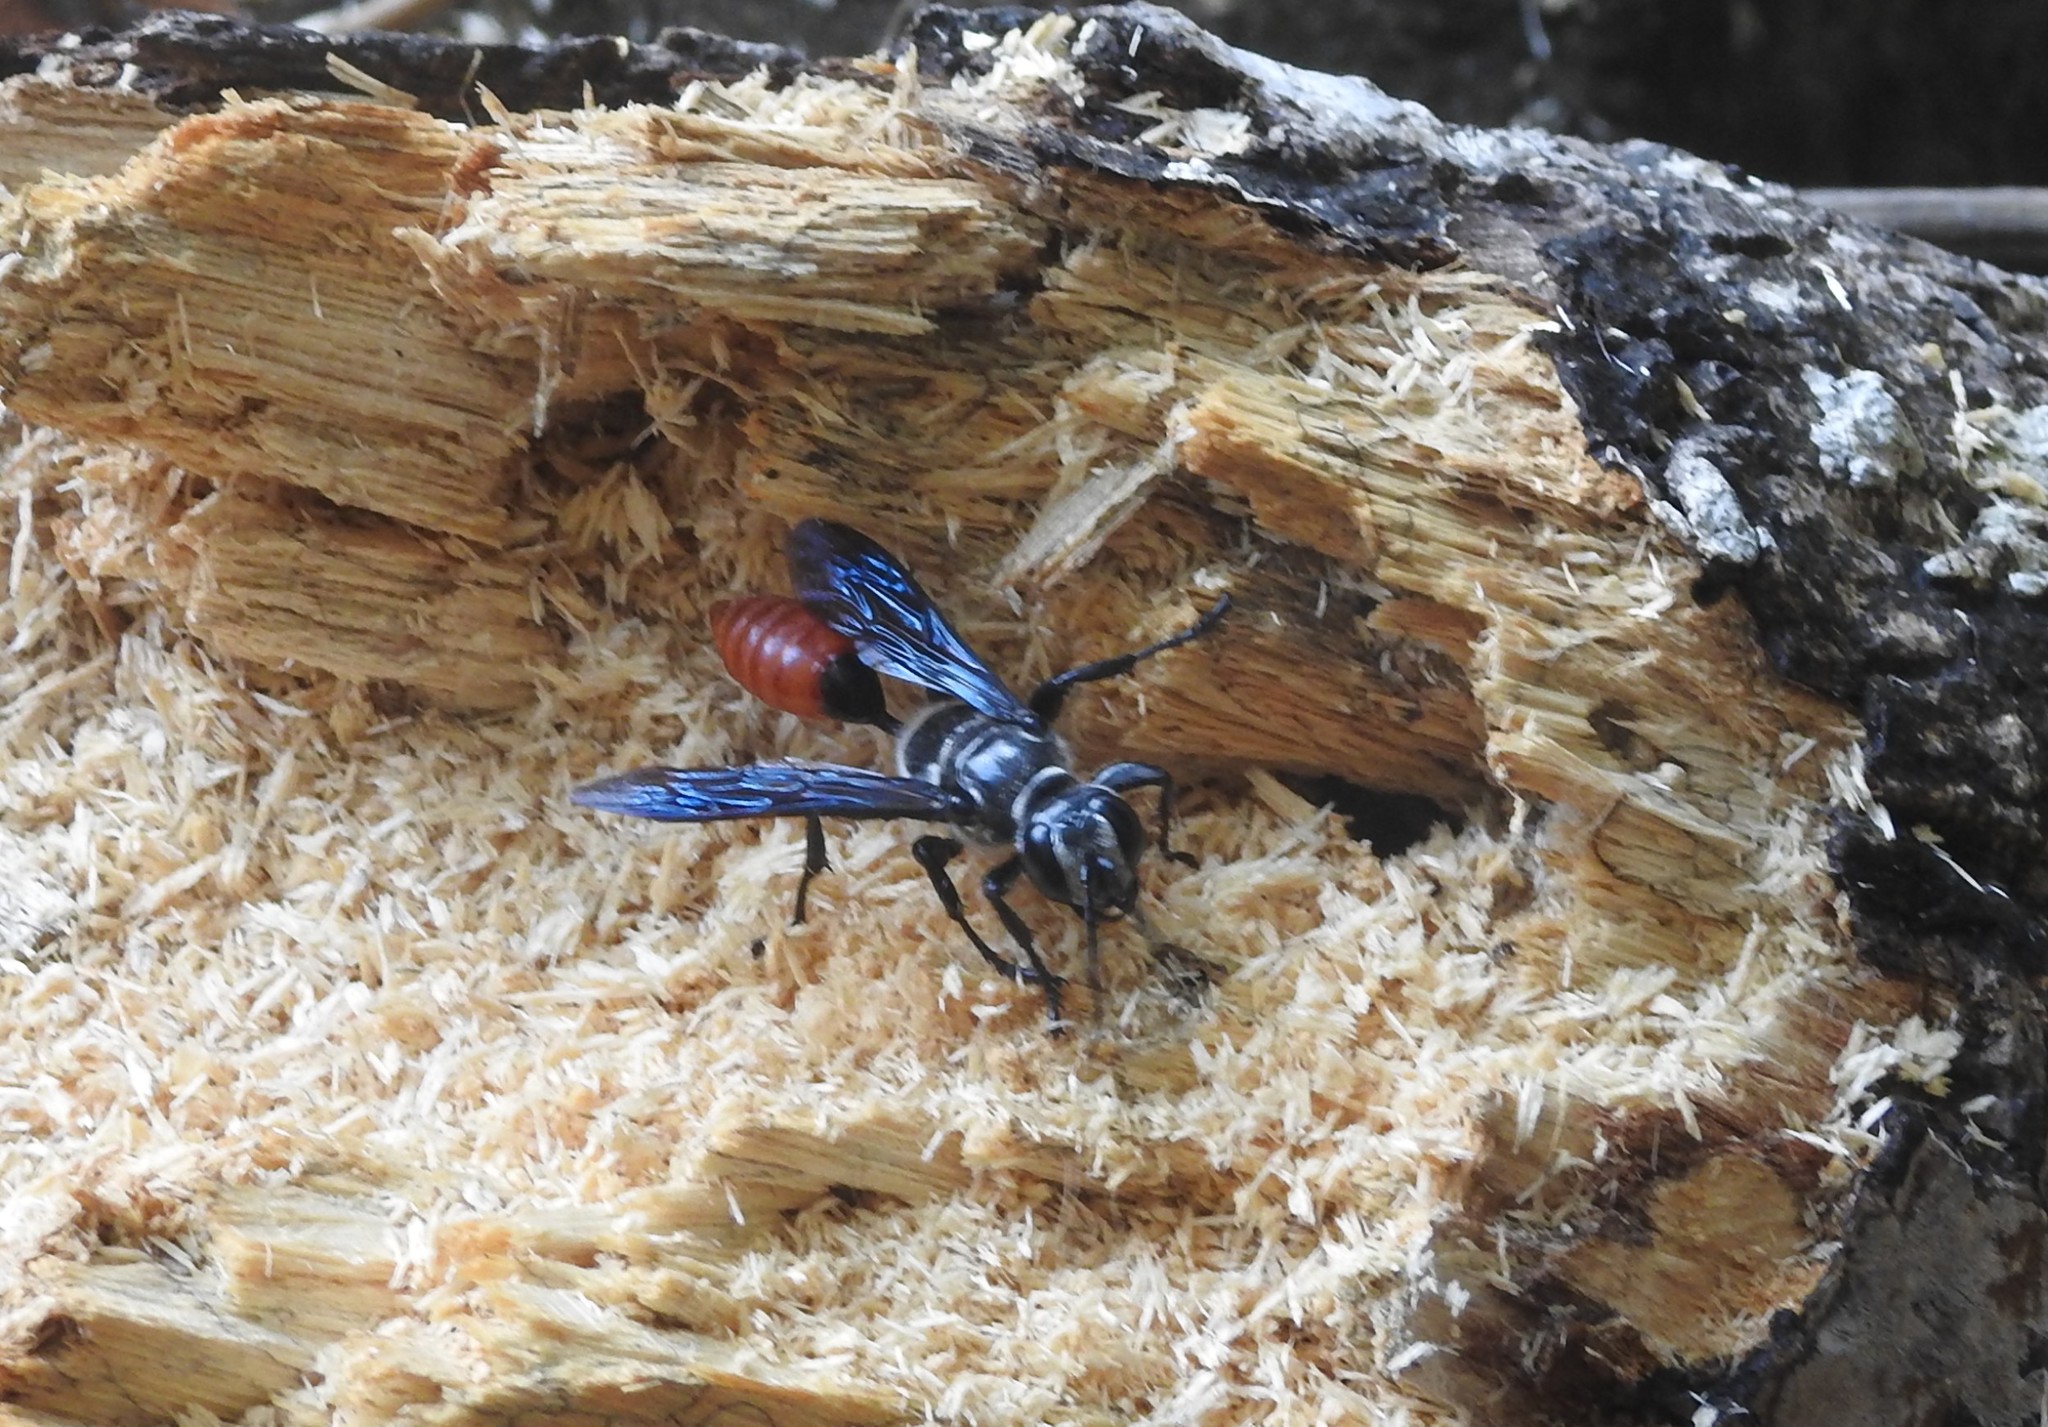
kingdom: Animalia
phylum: Arthropoda
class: Insecta
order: Hymenoptera
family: Sphecidae
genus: Isodontia
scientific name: Isodontia edax
